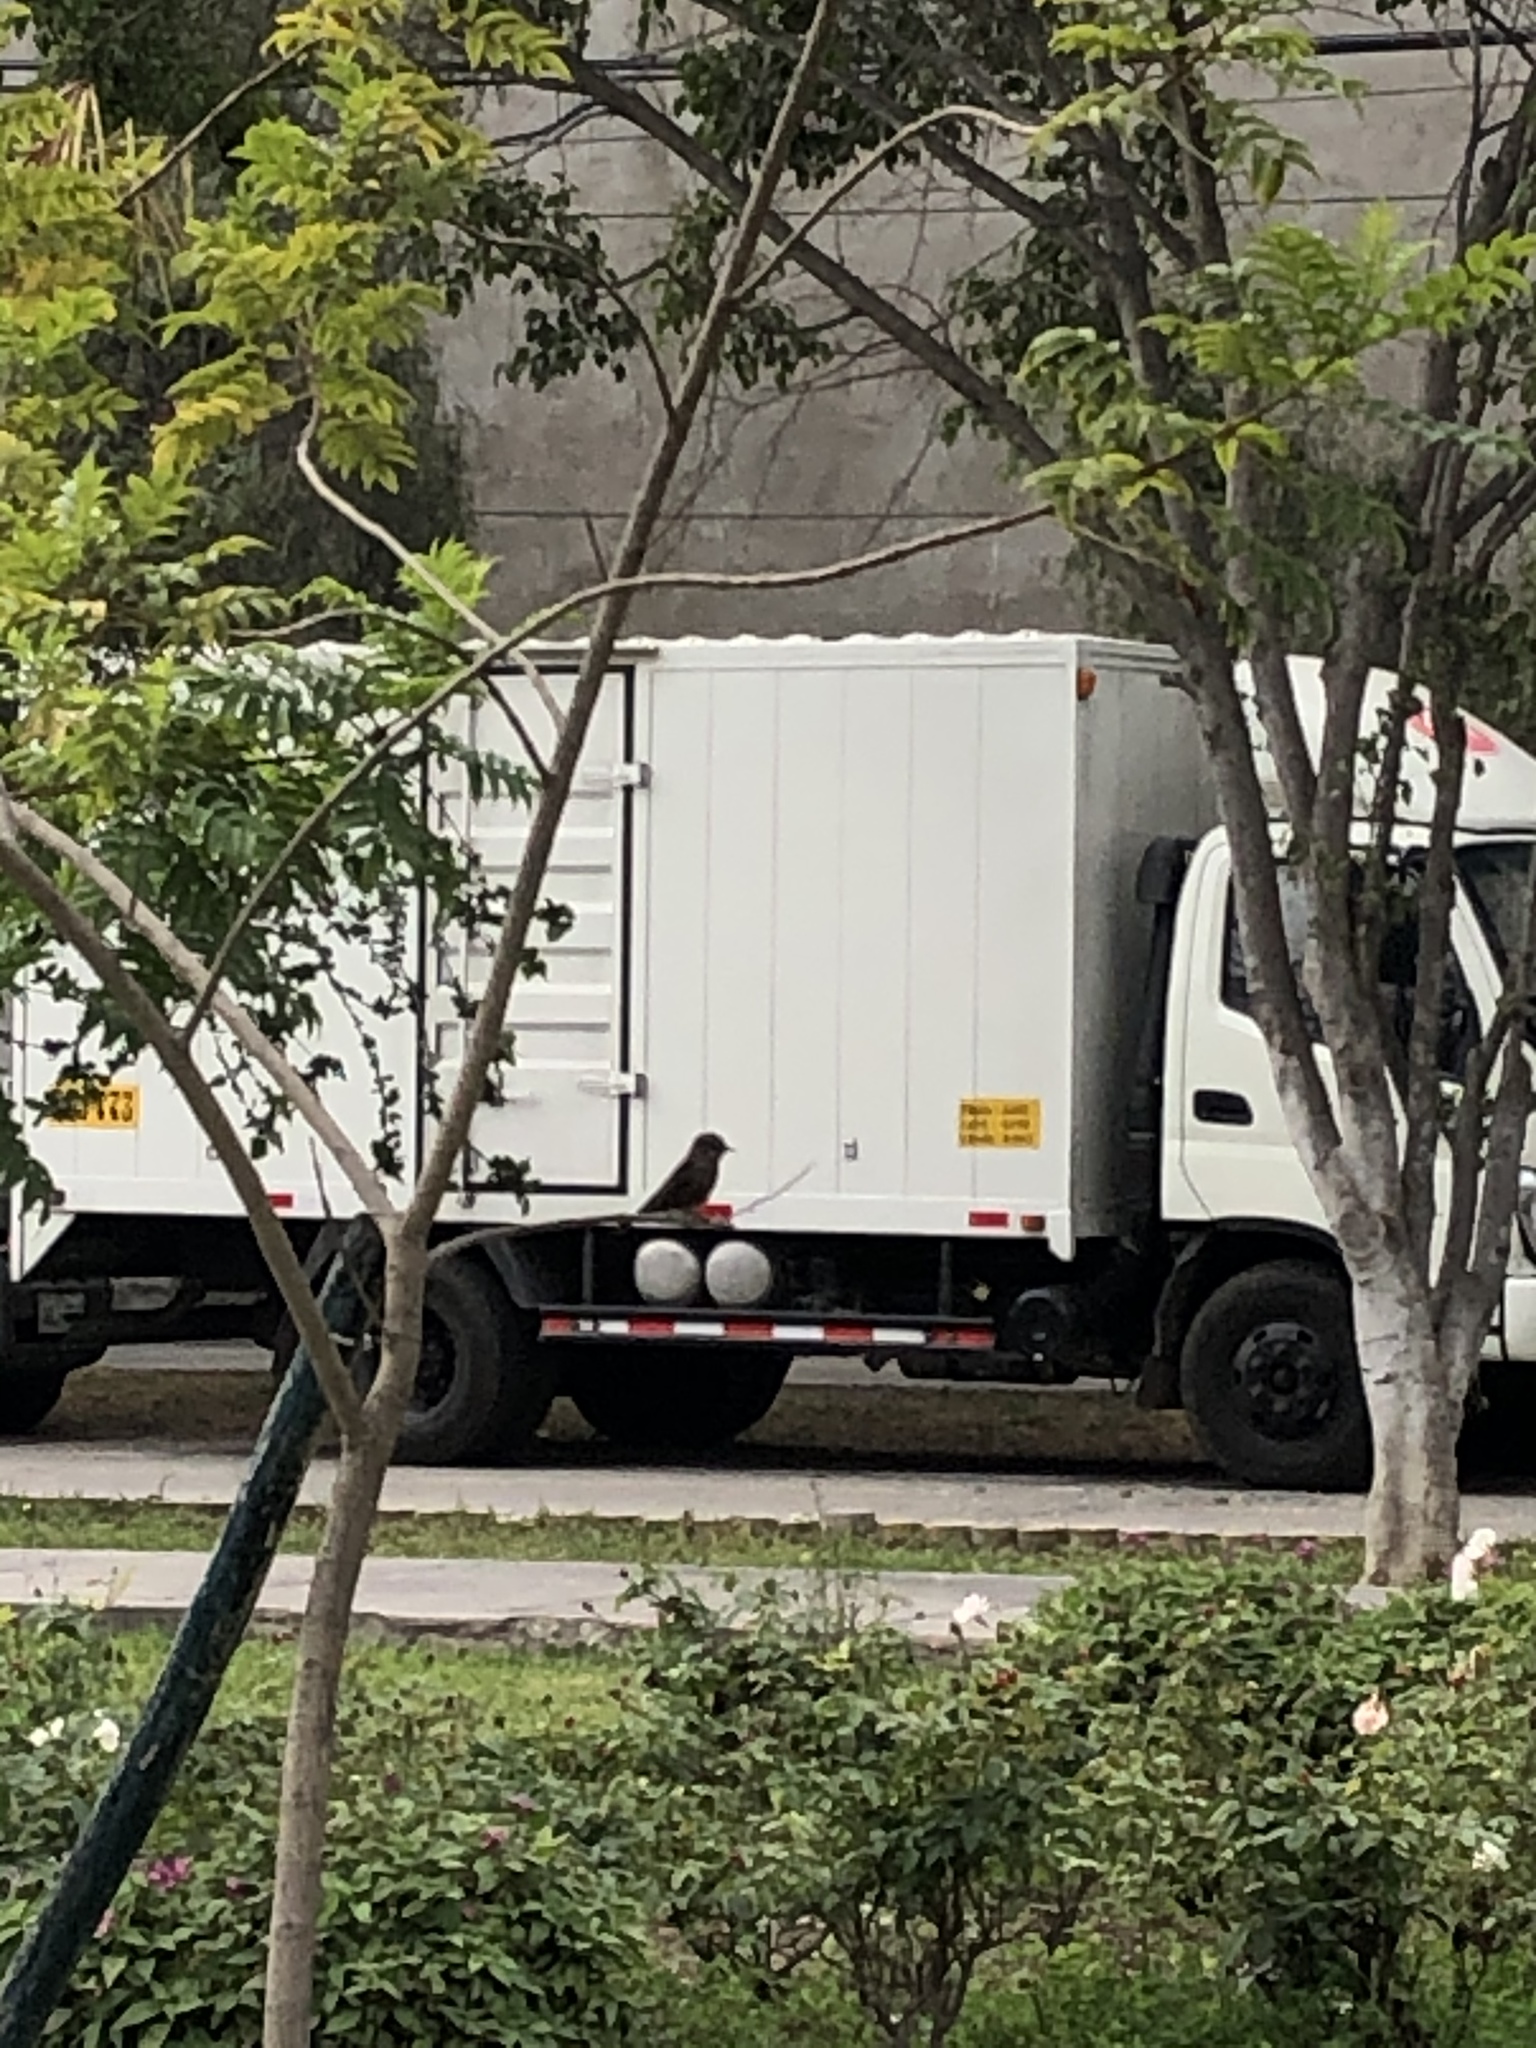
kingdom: Animalia
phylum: Chordata
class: Aves
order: Passeriformes
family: Tyrannidae
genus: Pyrocephalus
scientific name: Pyrocephalus rubinus
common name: Vermilion flycatcher
